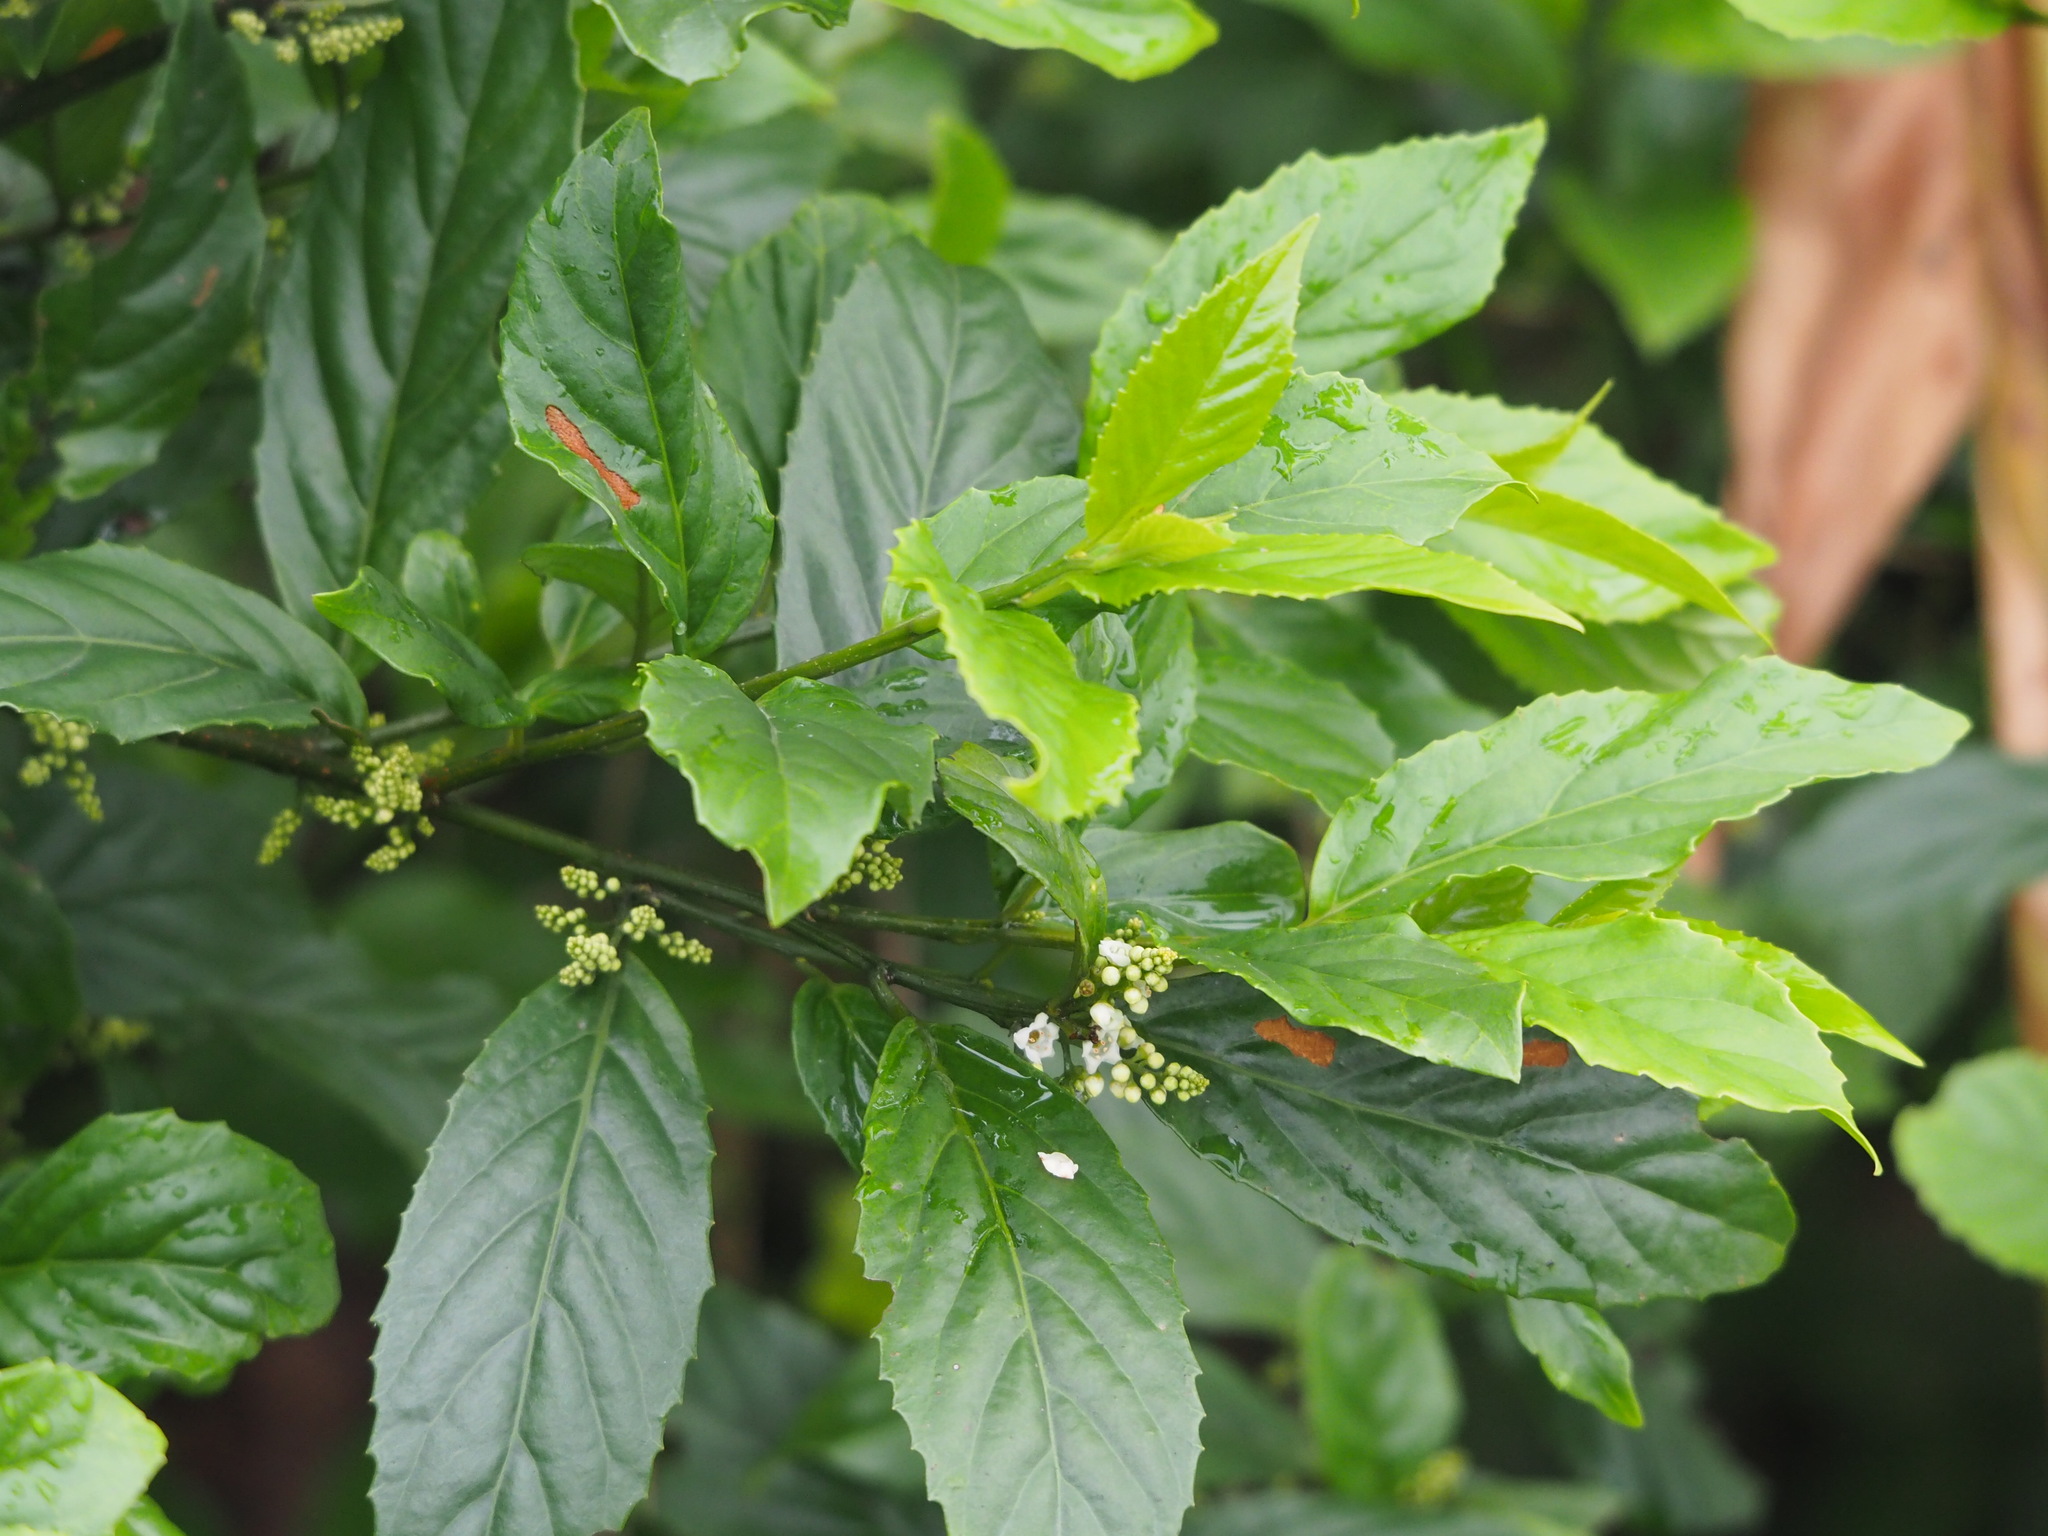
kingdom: Plantae
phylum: Tracheophyta
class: Magnoliopsida
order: Ericales
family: Primulaceae
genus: Maesa
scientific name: Maesa perlaria
